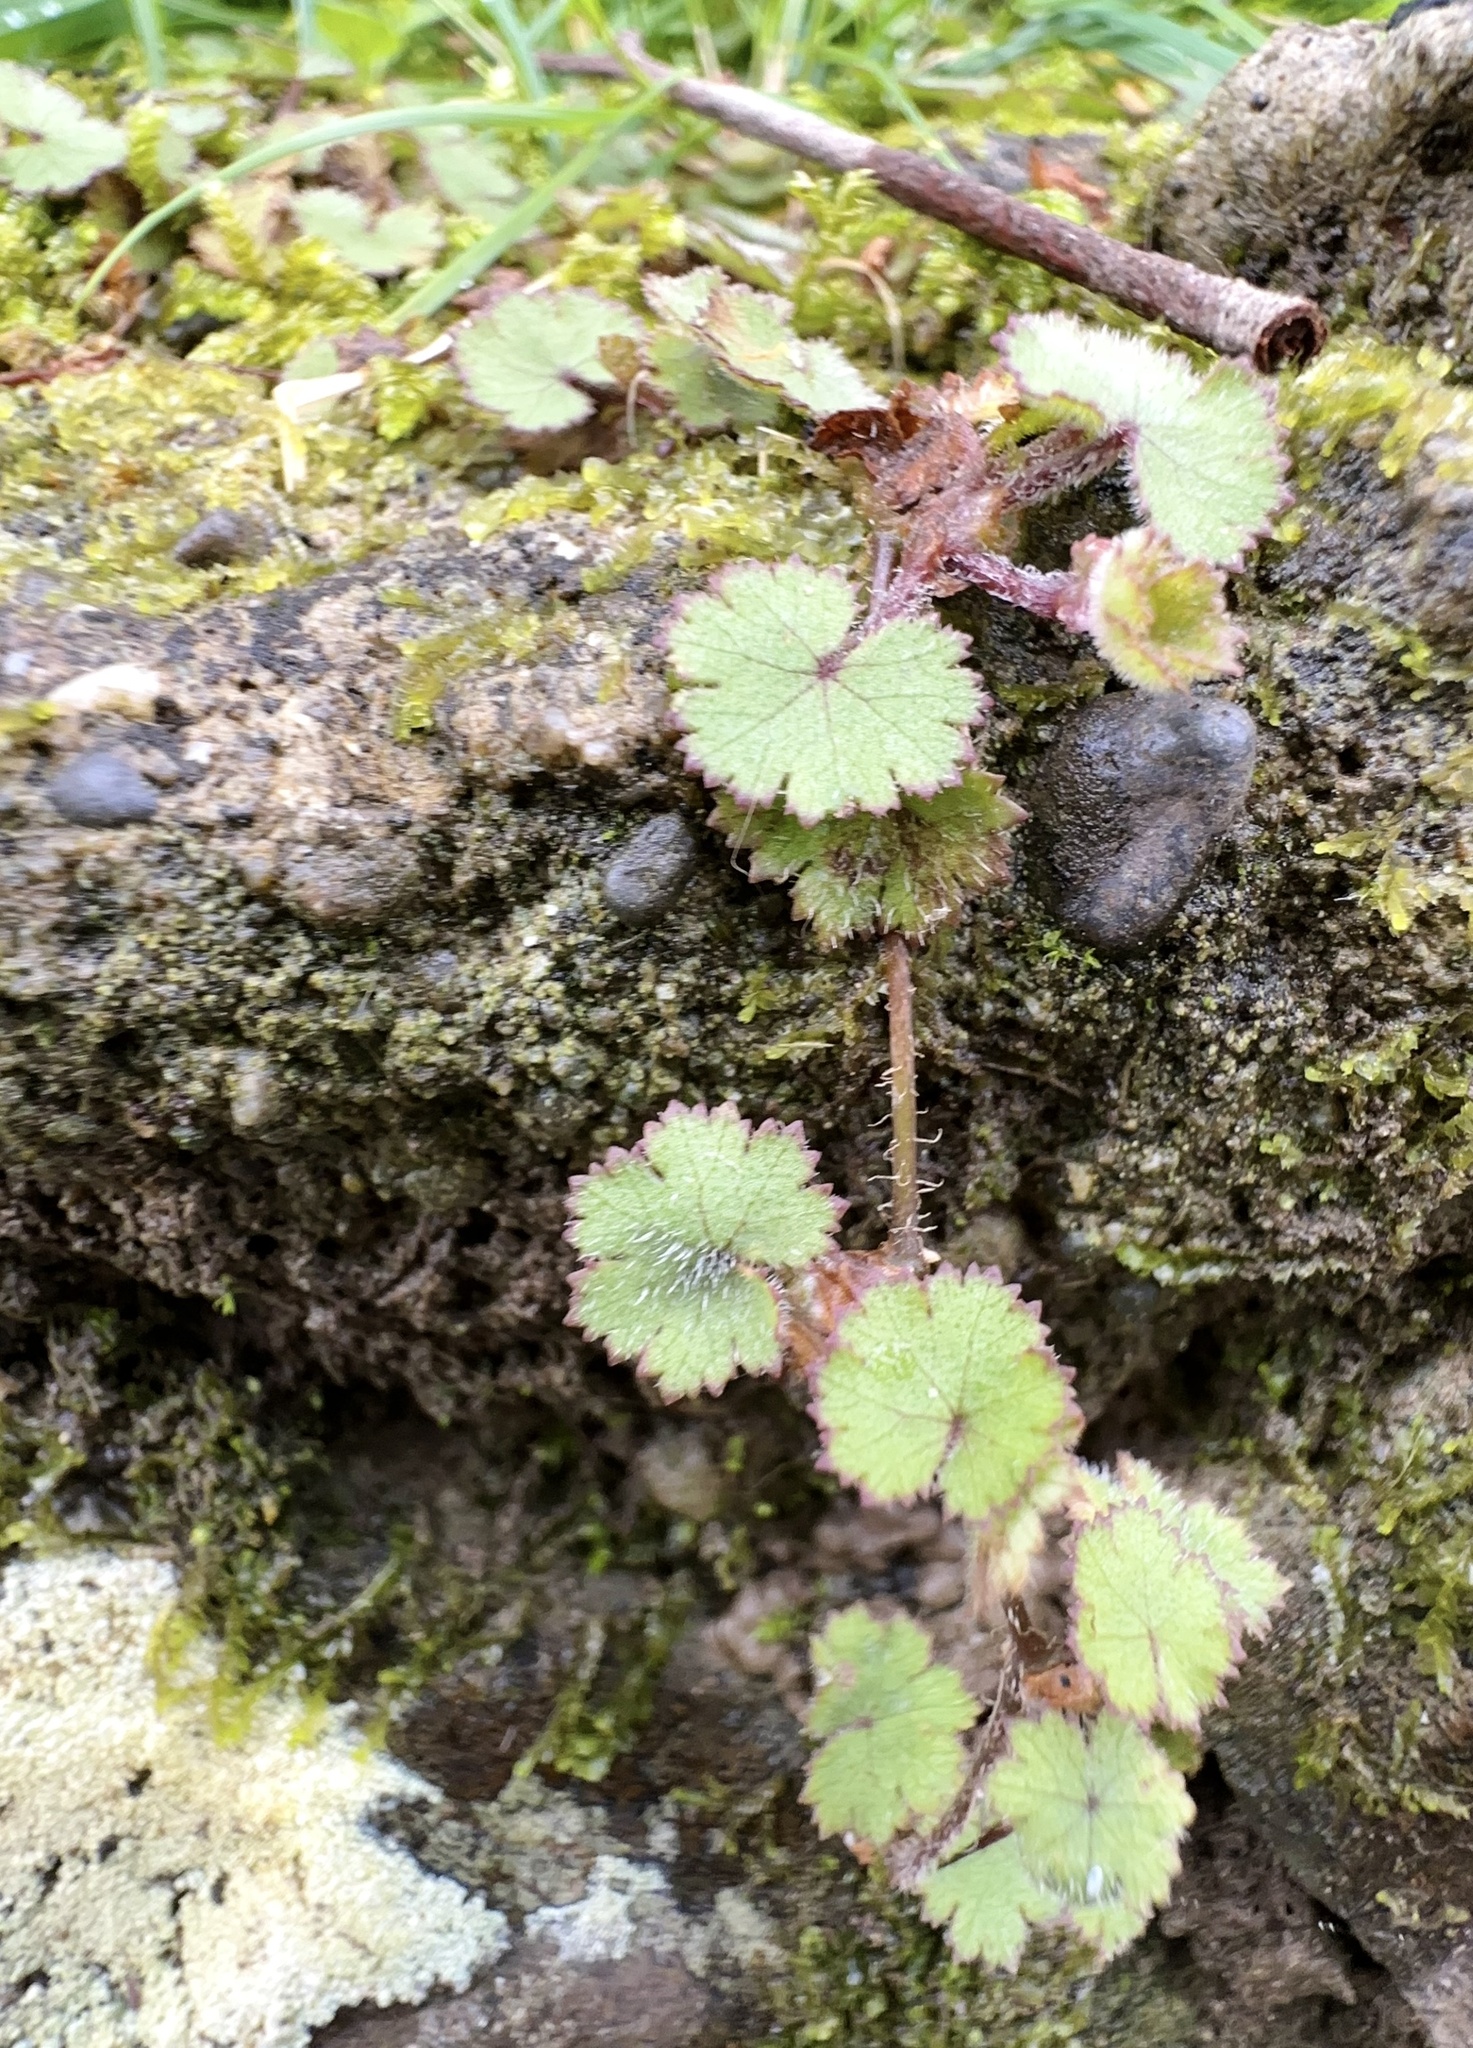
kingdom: Plantae
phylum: Tracheophyta
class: Magnoliopsida
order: Apiales
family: Araliaceae
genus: Hydrocotyle
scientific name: Hydrocotyle moschata
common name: Hairy pennywort
